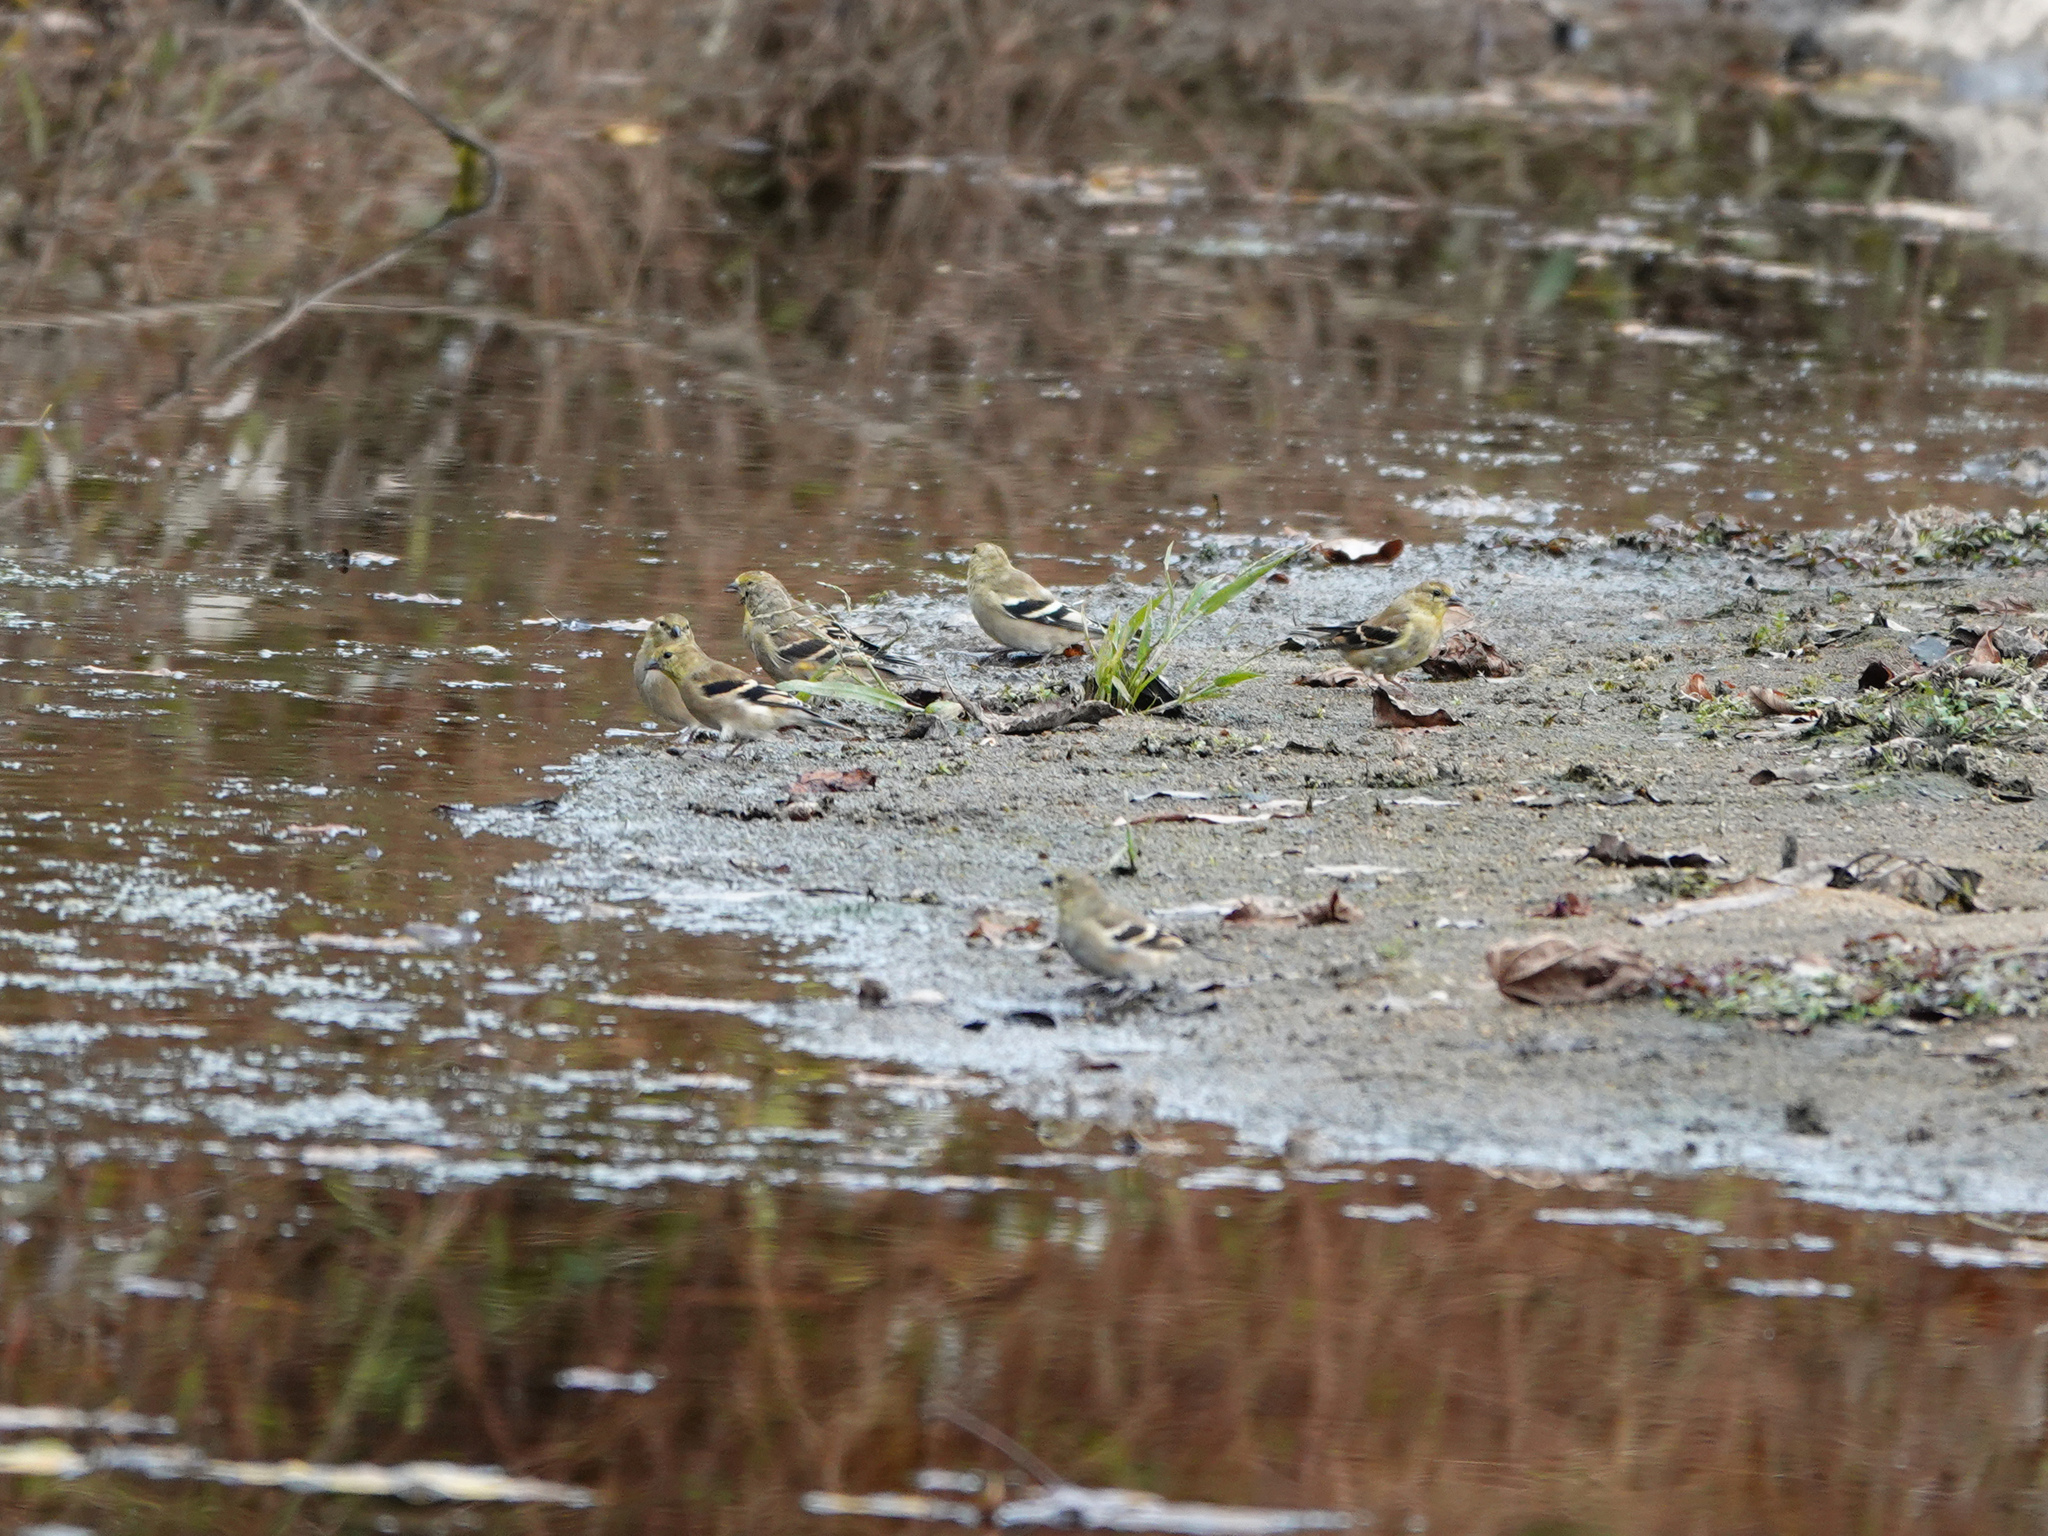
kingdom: Animalia
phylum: Chordata
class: Aves
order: Passeriformes
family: Fringillidae
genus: Spinus
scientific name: Spinus tristis
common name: American goldfinch
